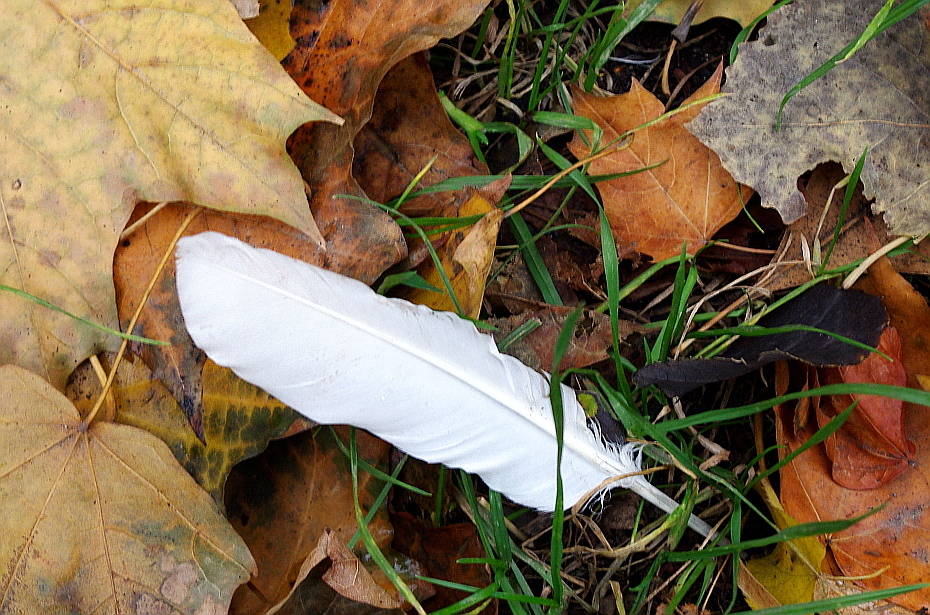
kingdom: Animalia
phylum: Chordata
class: Aves
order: Columbiformes
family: Columbidae
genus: Columba
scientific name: Columba livia
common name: Rock pigeon
